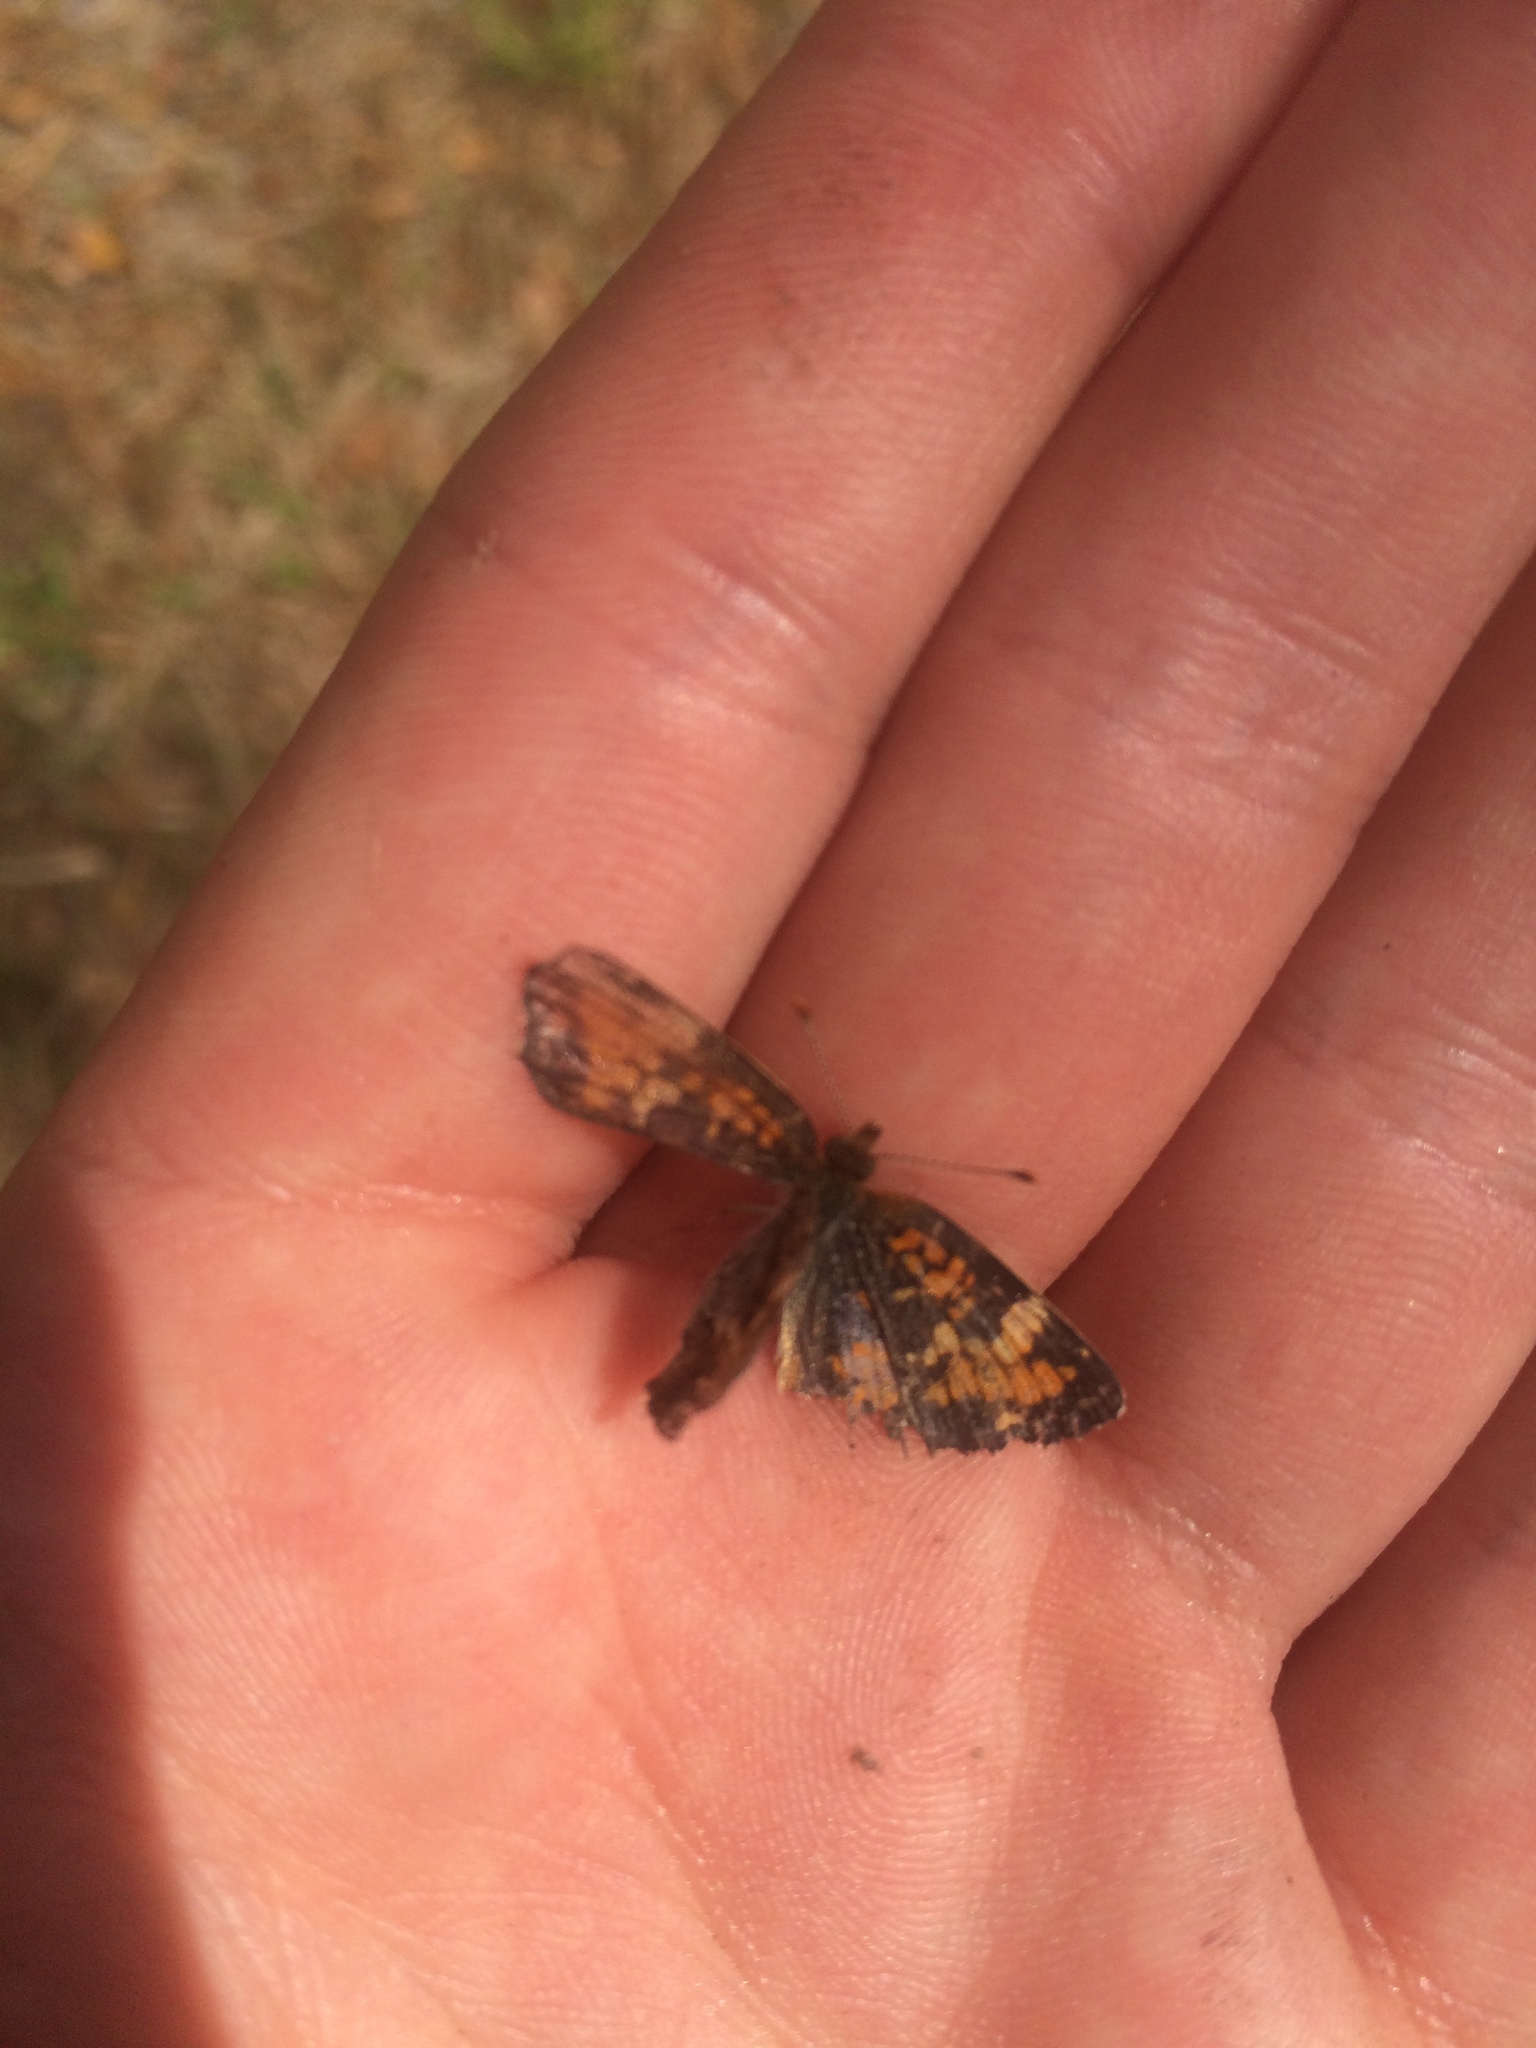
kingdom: Animalia
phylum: Arthropoda
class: Insecta
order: Lepidoptera
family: Nymphalidae
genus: Phyciodes
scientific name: Phyciodes phaon
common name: Phaon crescent
